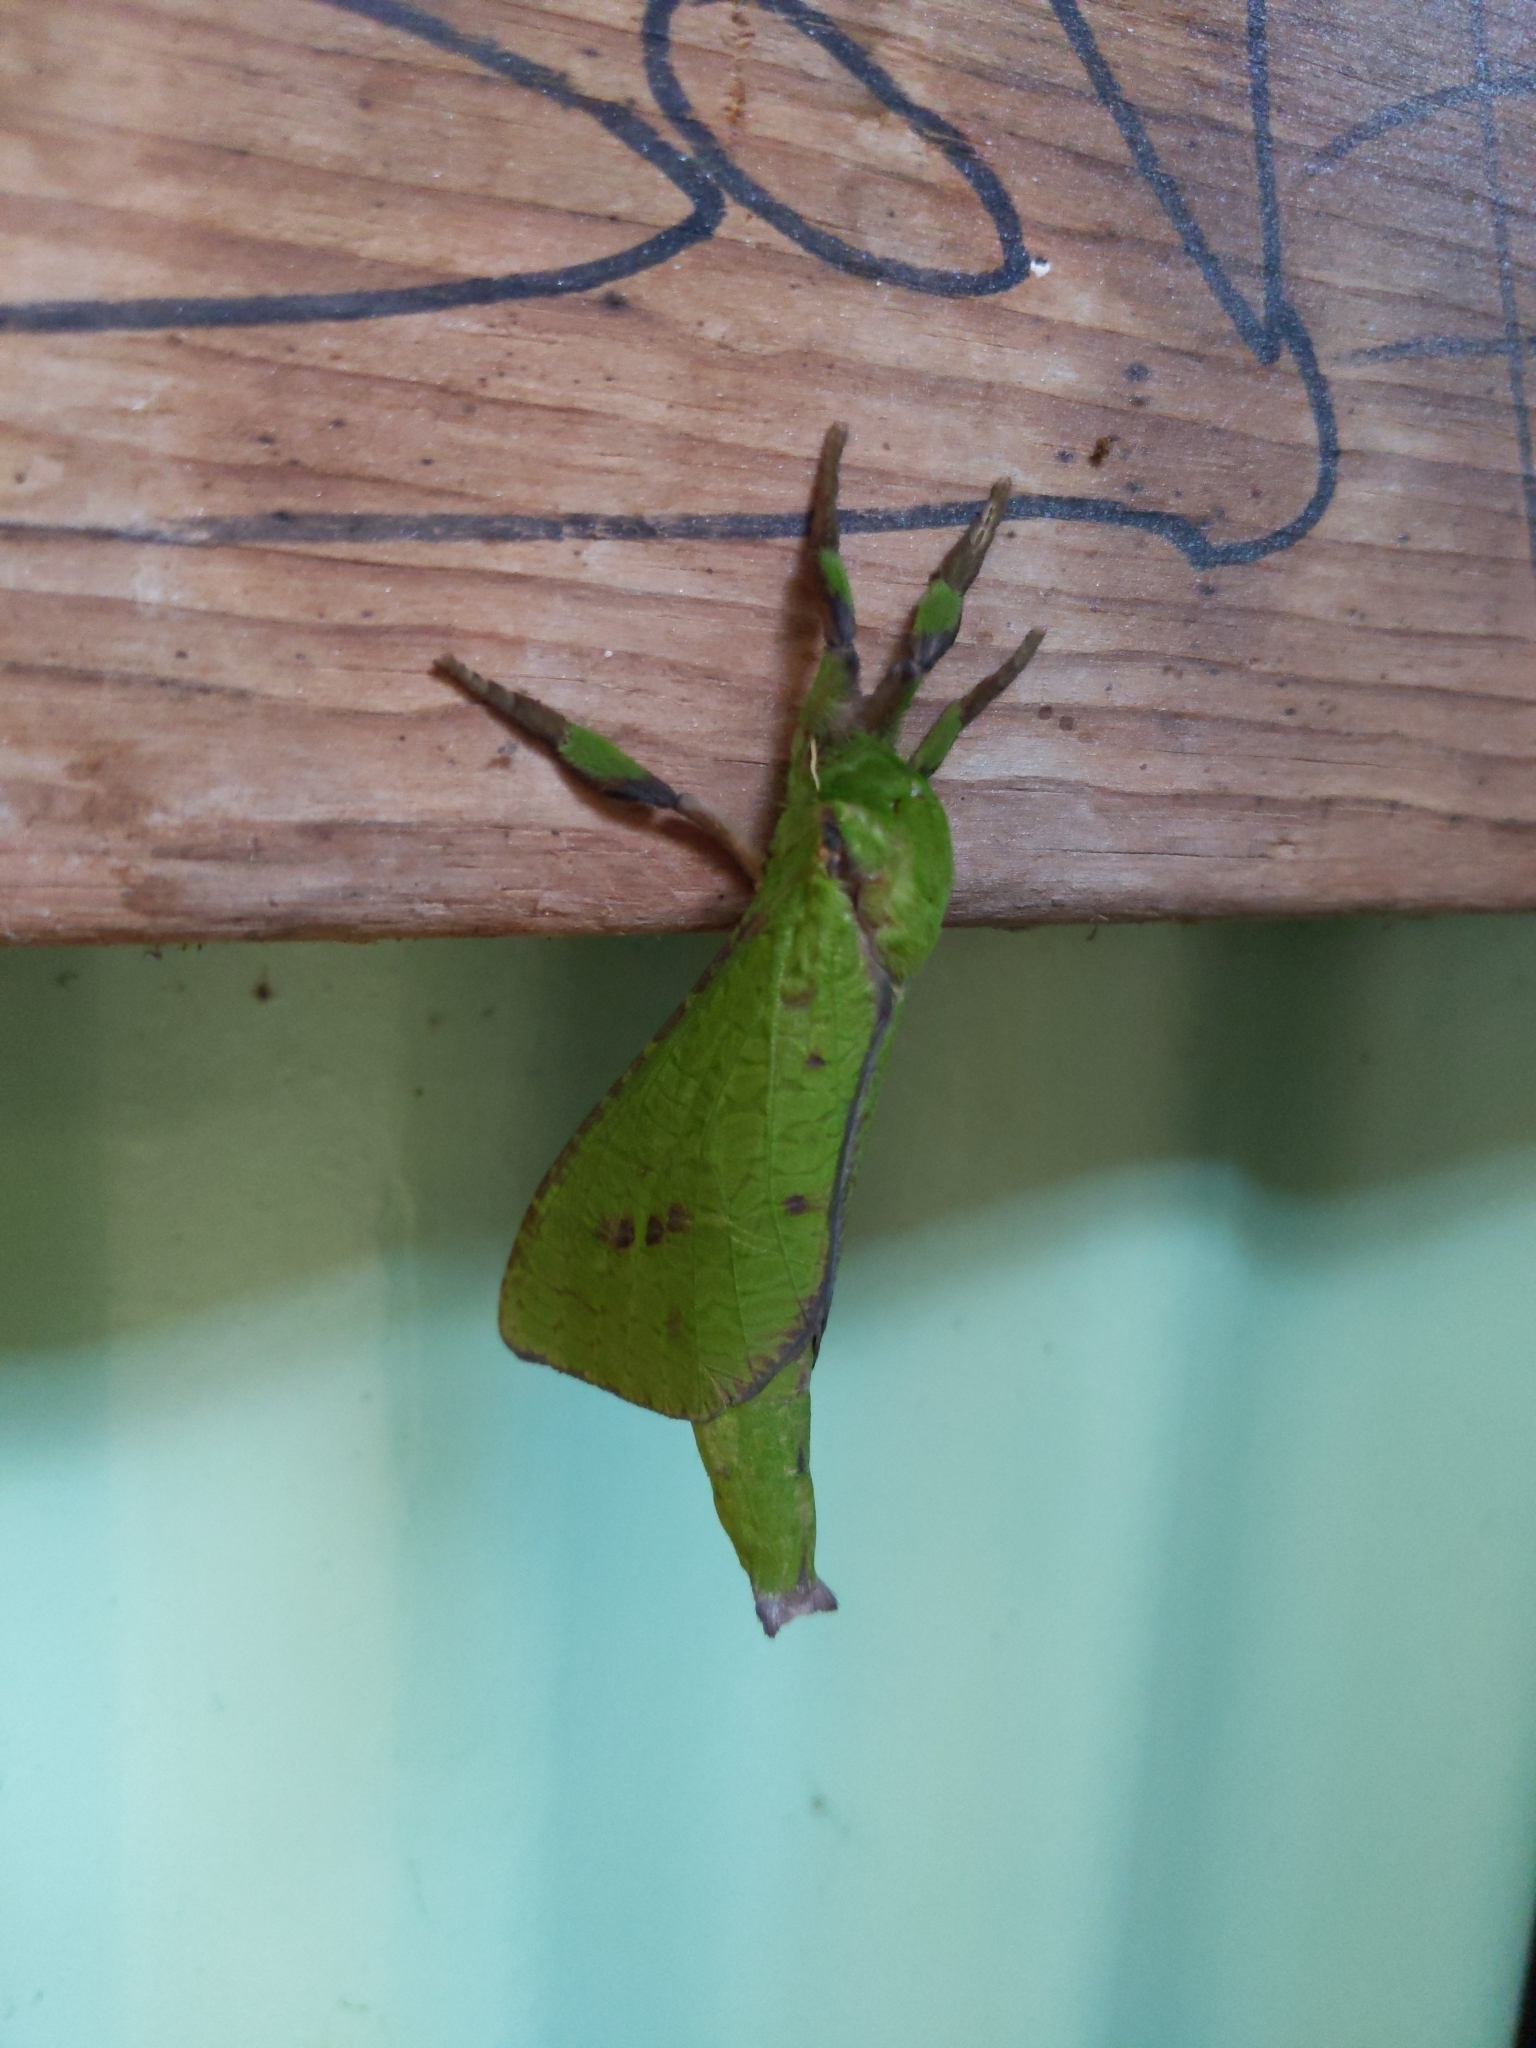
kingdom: Animalia
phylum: Arthropoda
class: Insecta
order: Lepidoptera
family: Hepialidae
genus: Aenetus
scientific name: Aenetus
